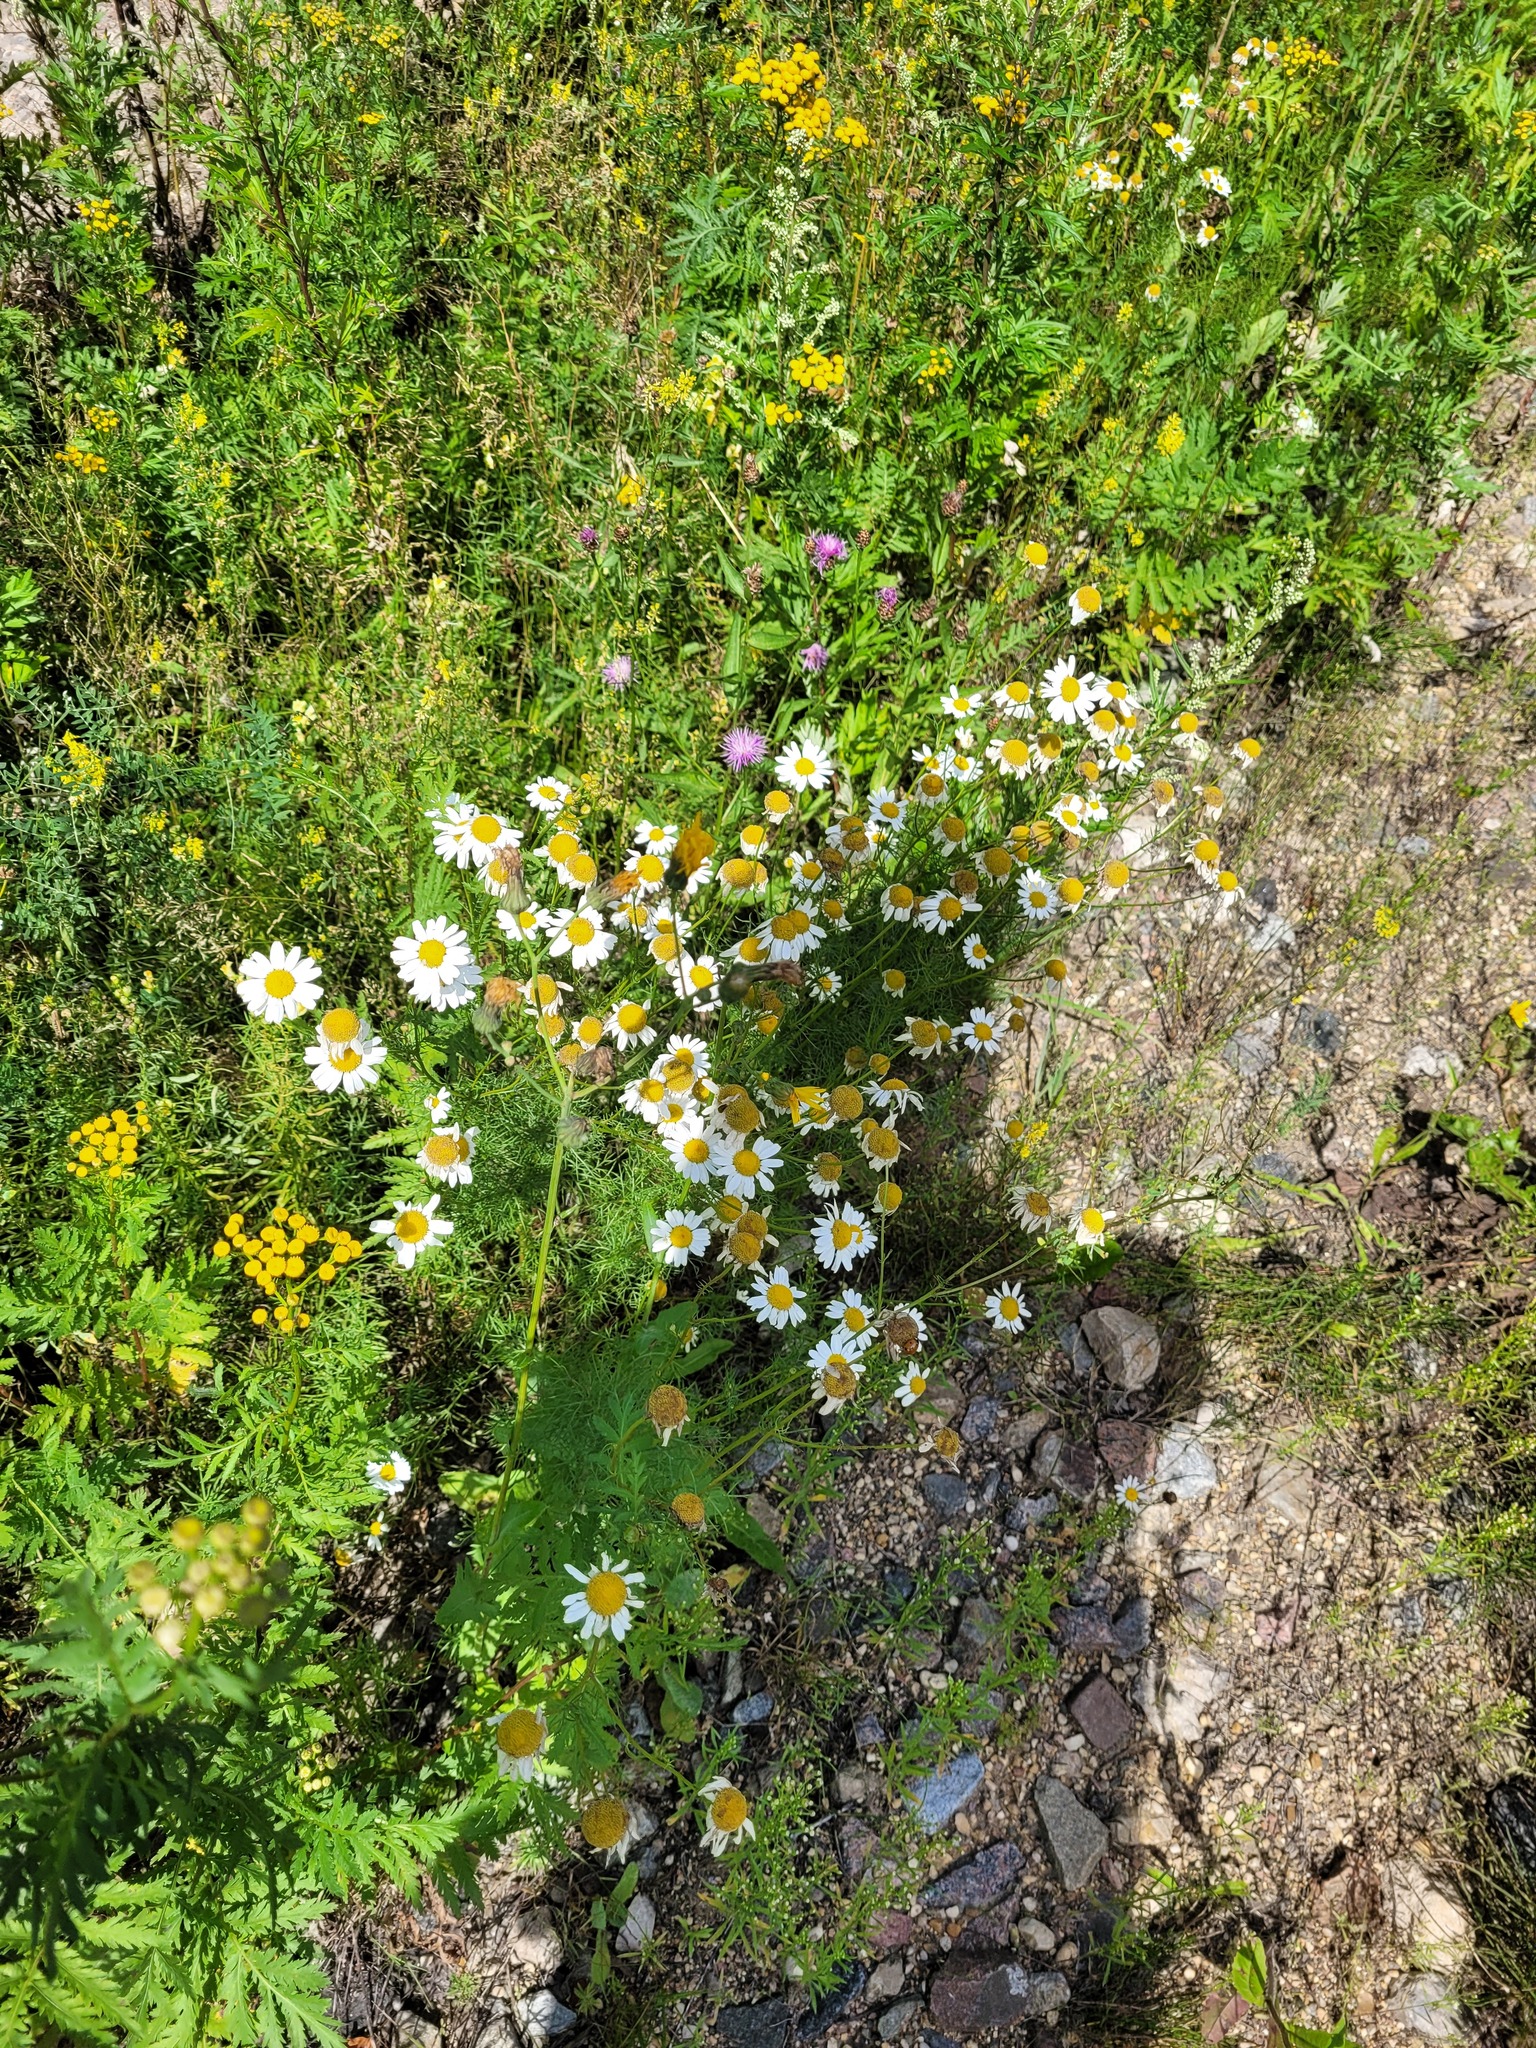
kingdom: Plantae
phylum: Tracheophyta
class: Magnoliopsida
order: Asterales
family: Asteraceae
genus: Tripleurospermum
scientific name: Tripleurospermum inodorum
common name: Scentless mayweed
